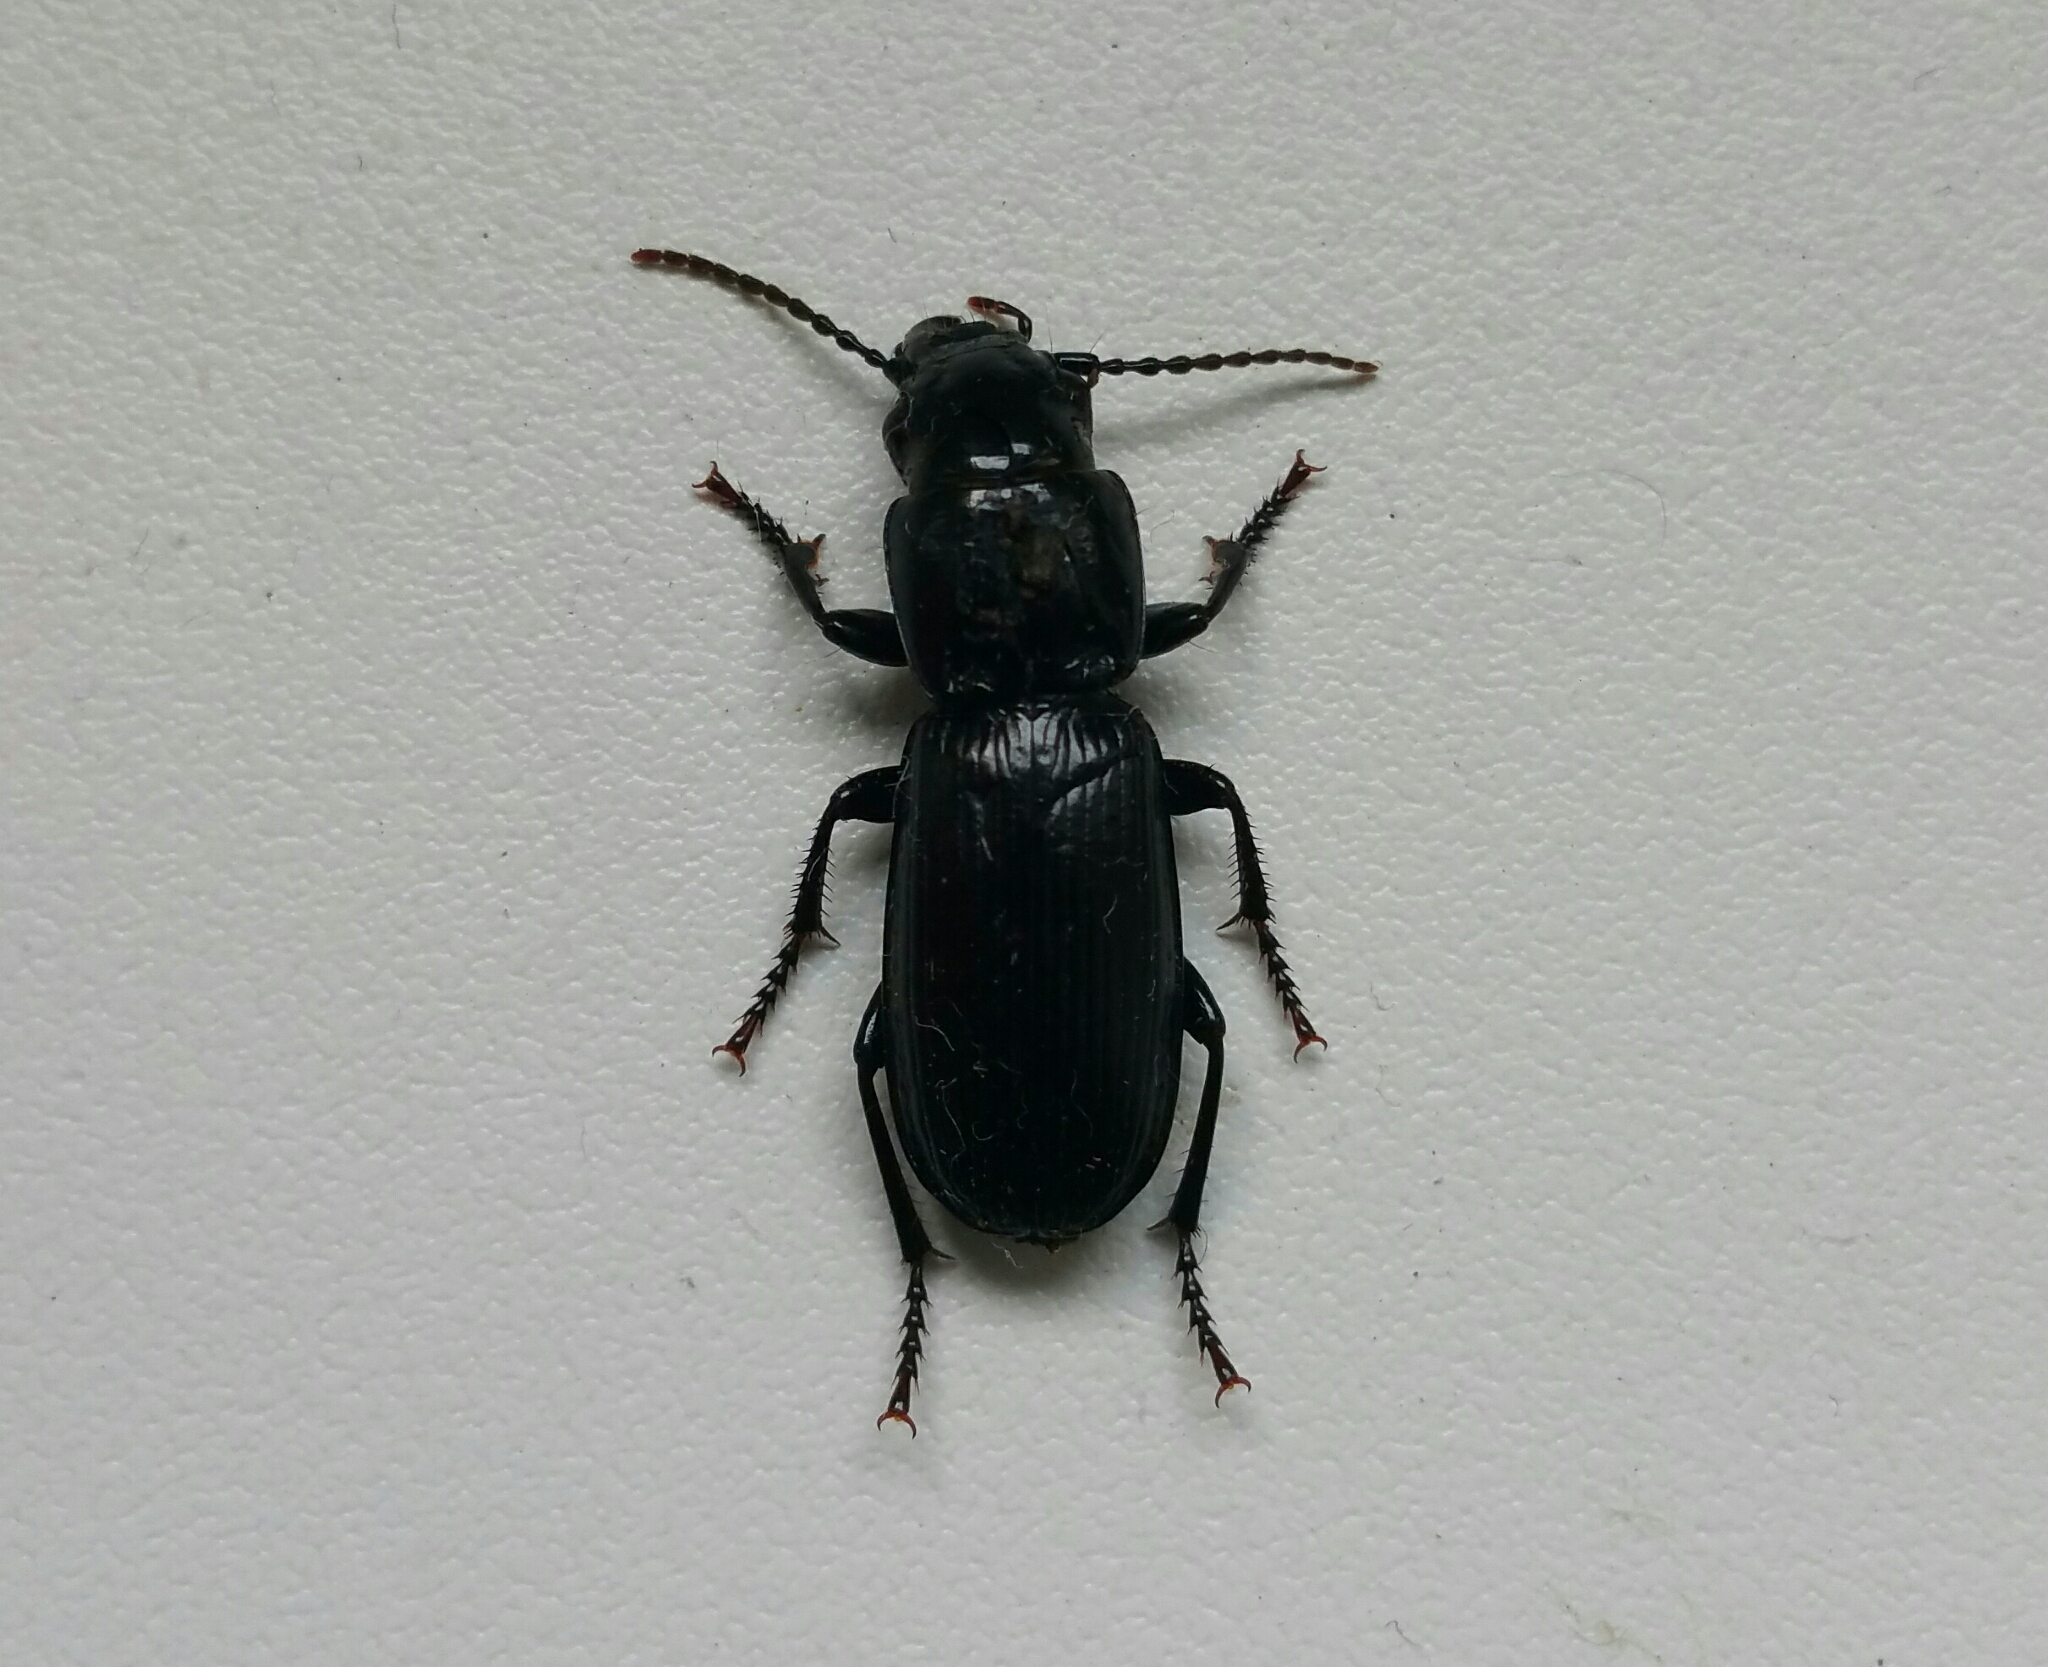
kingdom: Animalia
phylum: Arthropoda
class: Insecta
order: Coleoptera
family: Carabidae
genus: Pterostichus
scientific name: Pterostichus cylindricus
